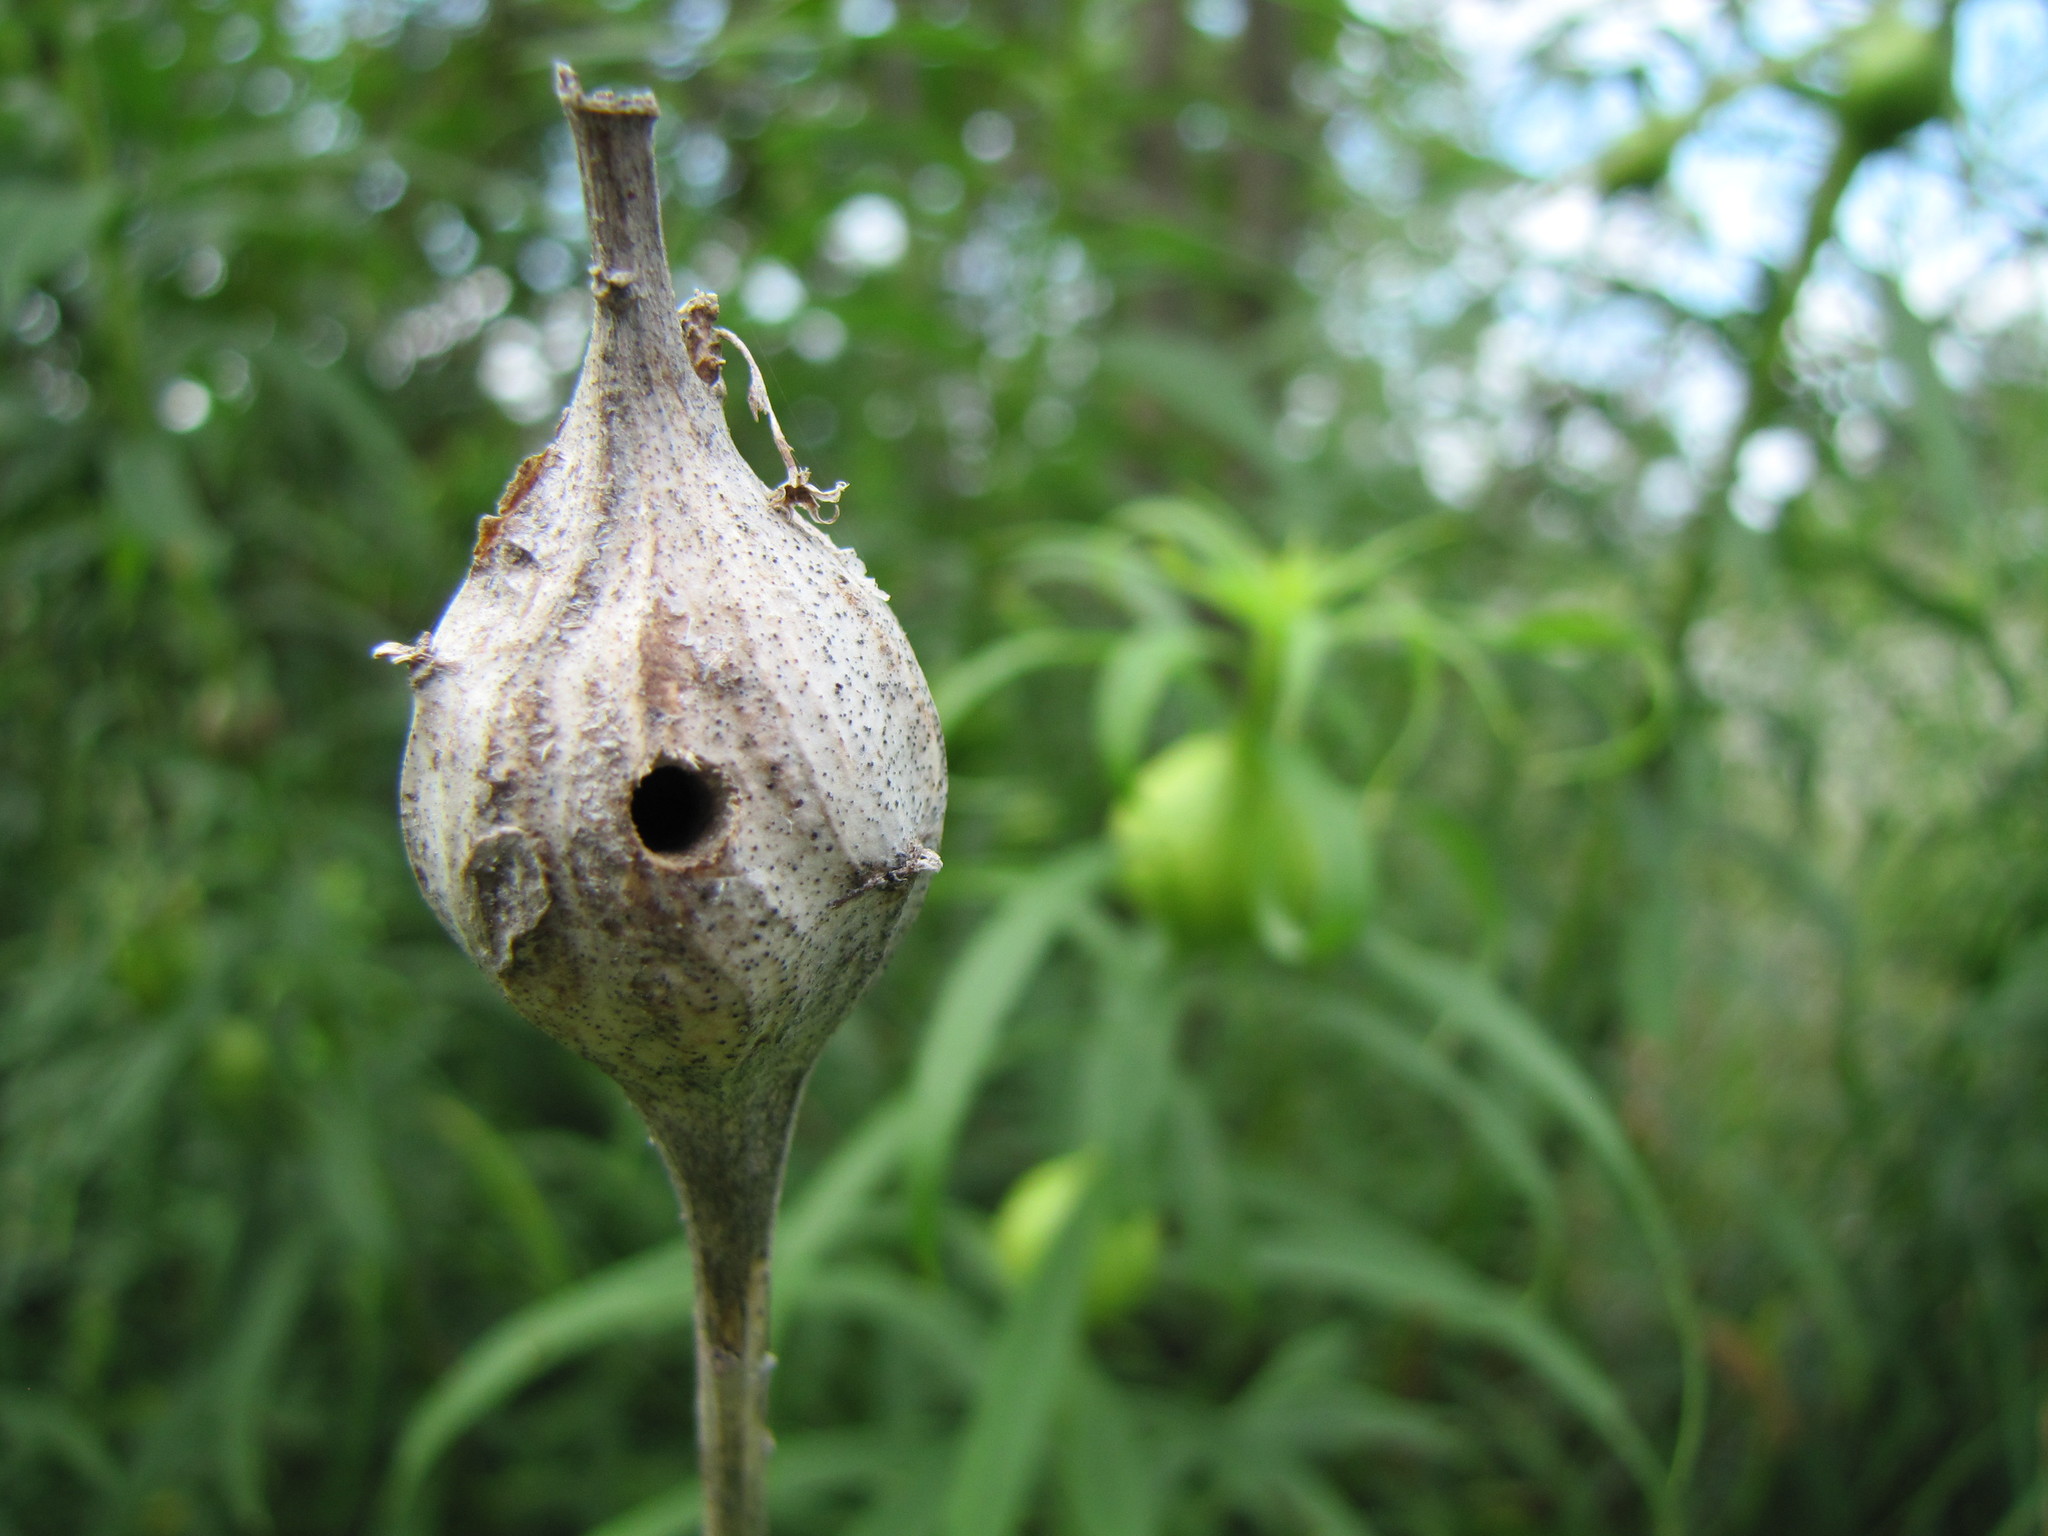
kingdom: Animalia
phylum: Arthropoda
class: Insecta
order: Diptera
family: Tephritidae
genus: Eurosta
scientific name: Eurosta solidaginis
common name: Goldenrod gall fly
